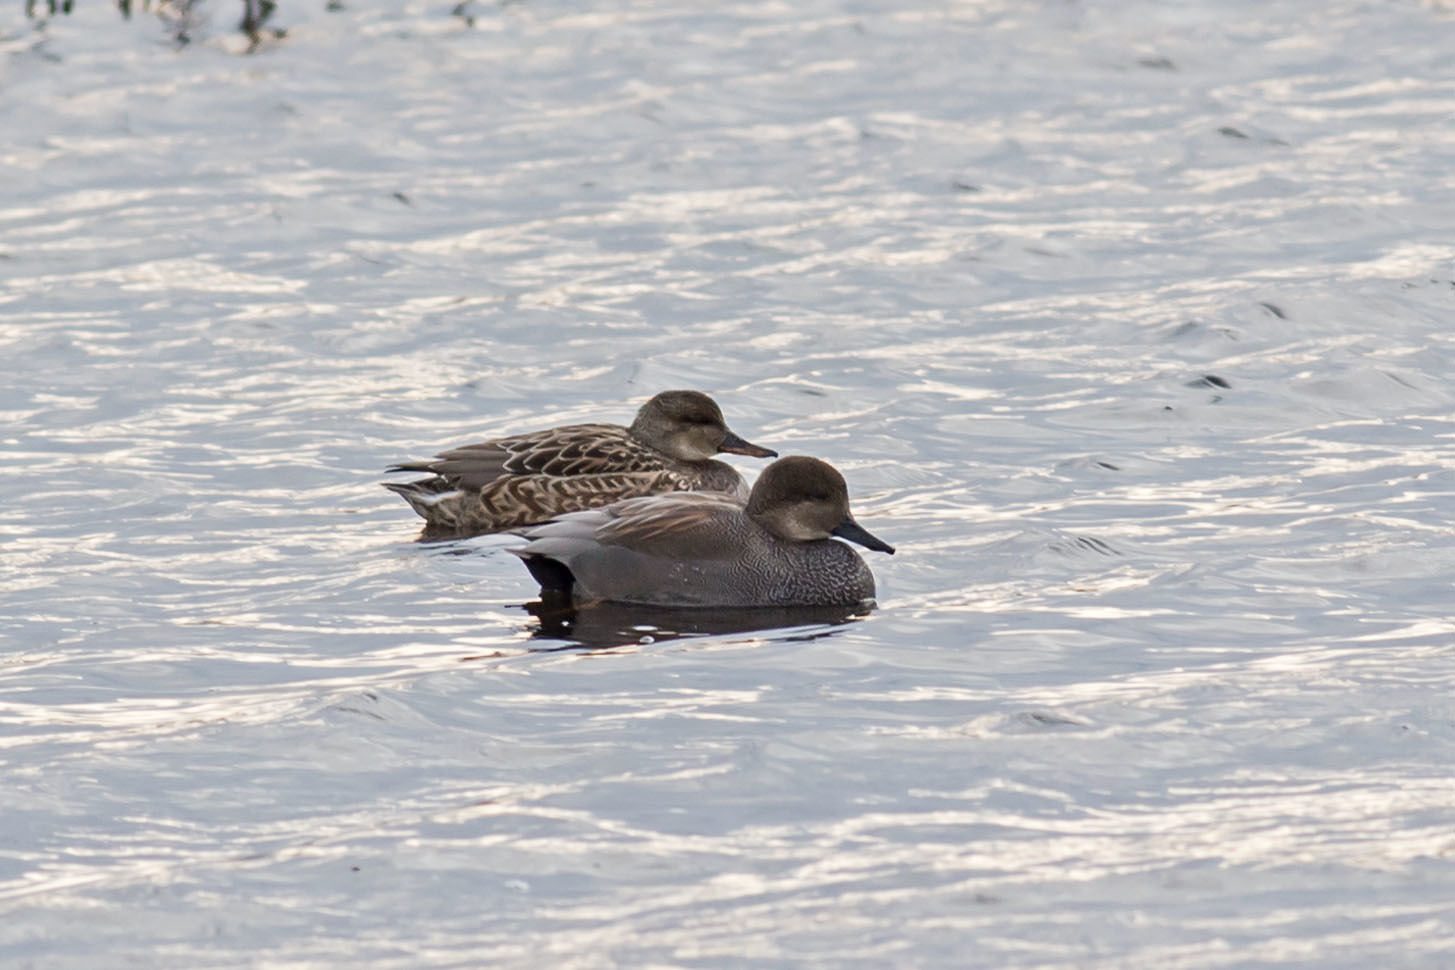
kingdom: Animalia
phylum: Chordata
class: Aves
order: Anseriformes
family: Anatidae
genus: Mareca
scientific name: Mareca strepera
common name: Gadwall
